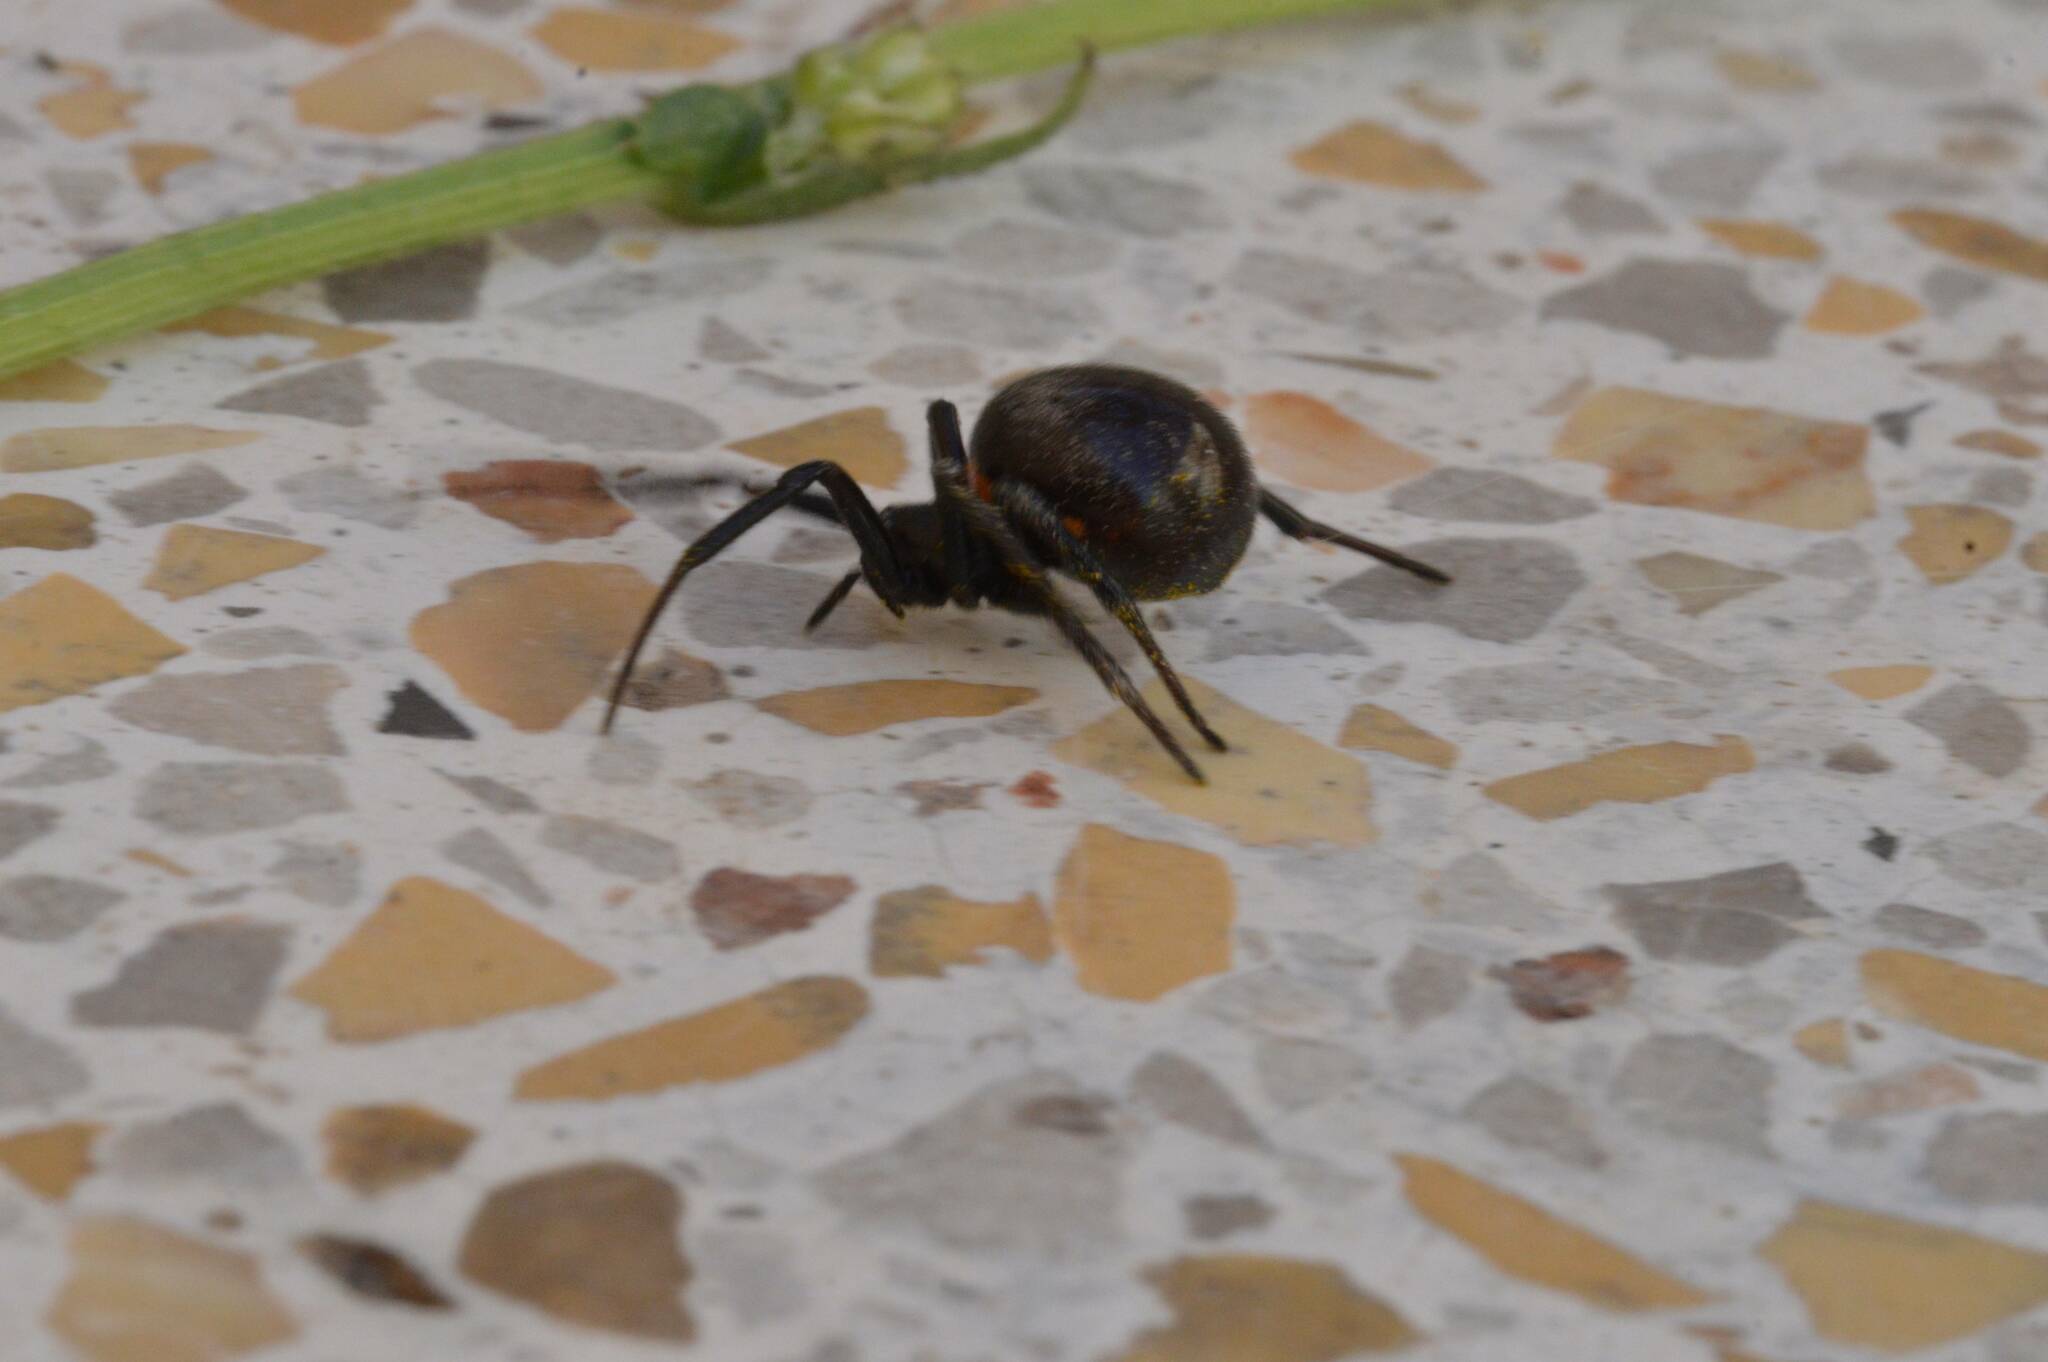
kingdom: Animalia
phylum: Arthropoda
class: Arachnida
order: Araneae
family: Theridiidae
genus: Steatoda
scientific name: Steatoda paykulliana
